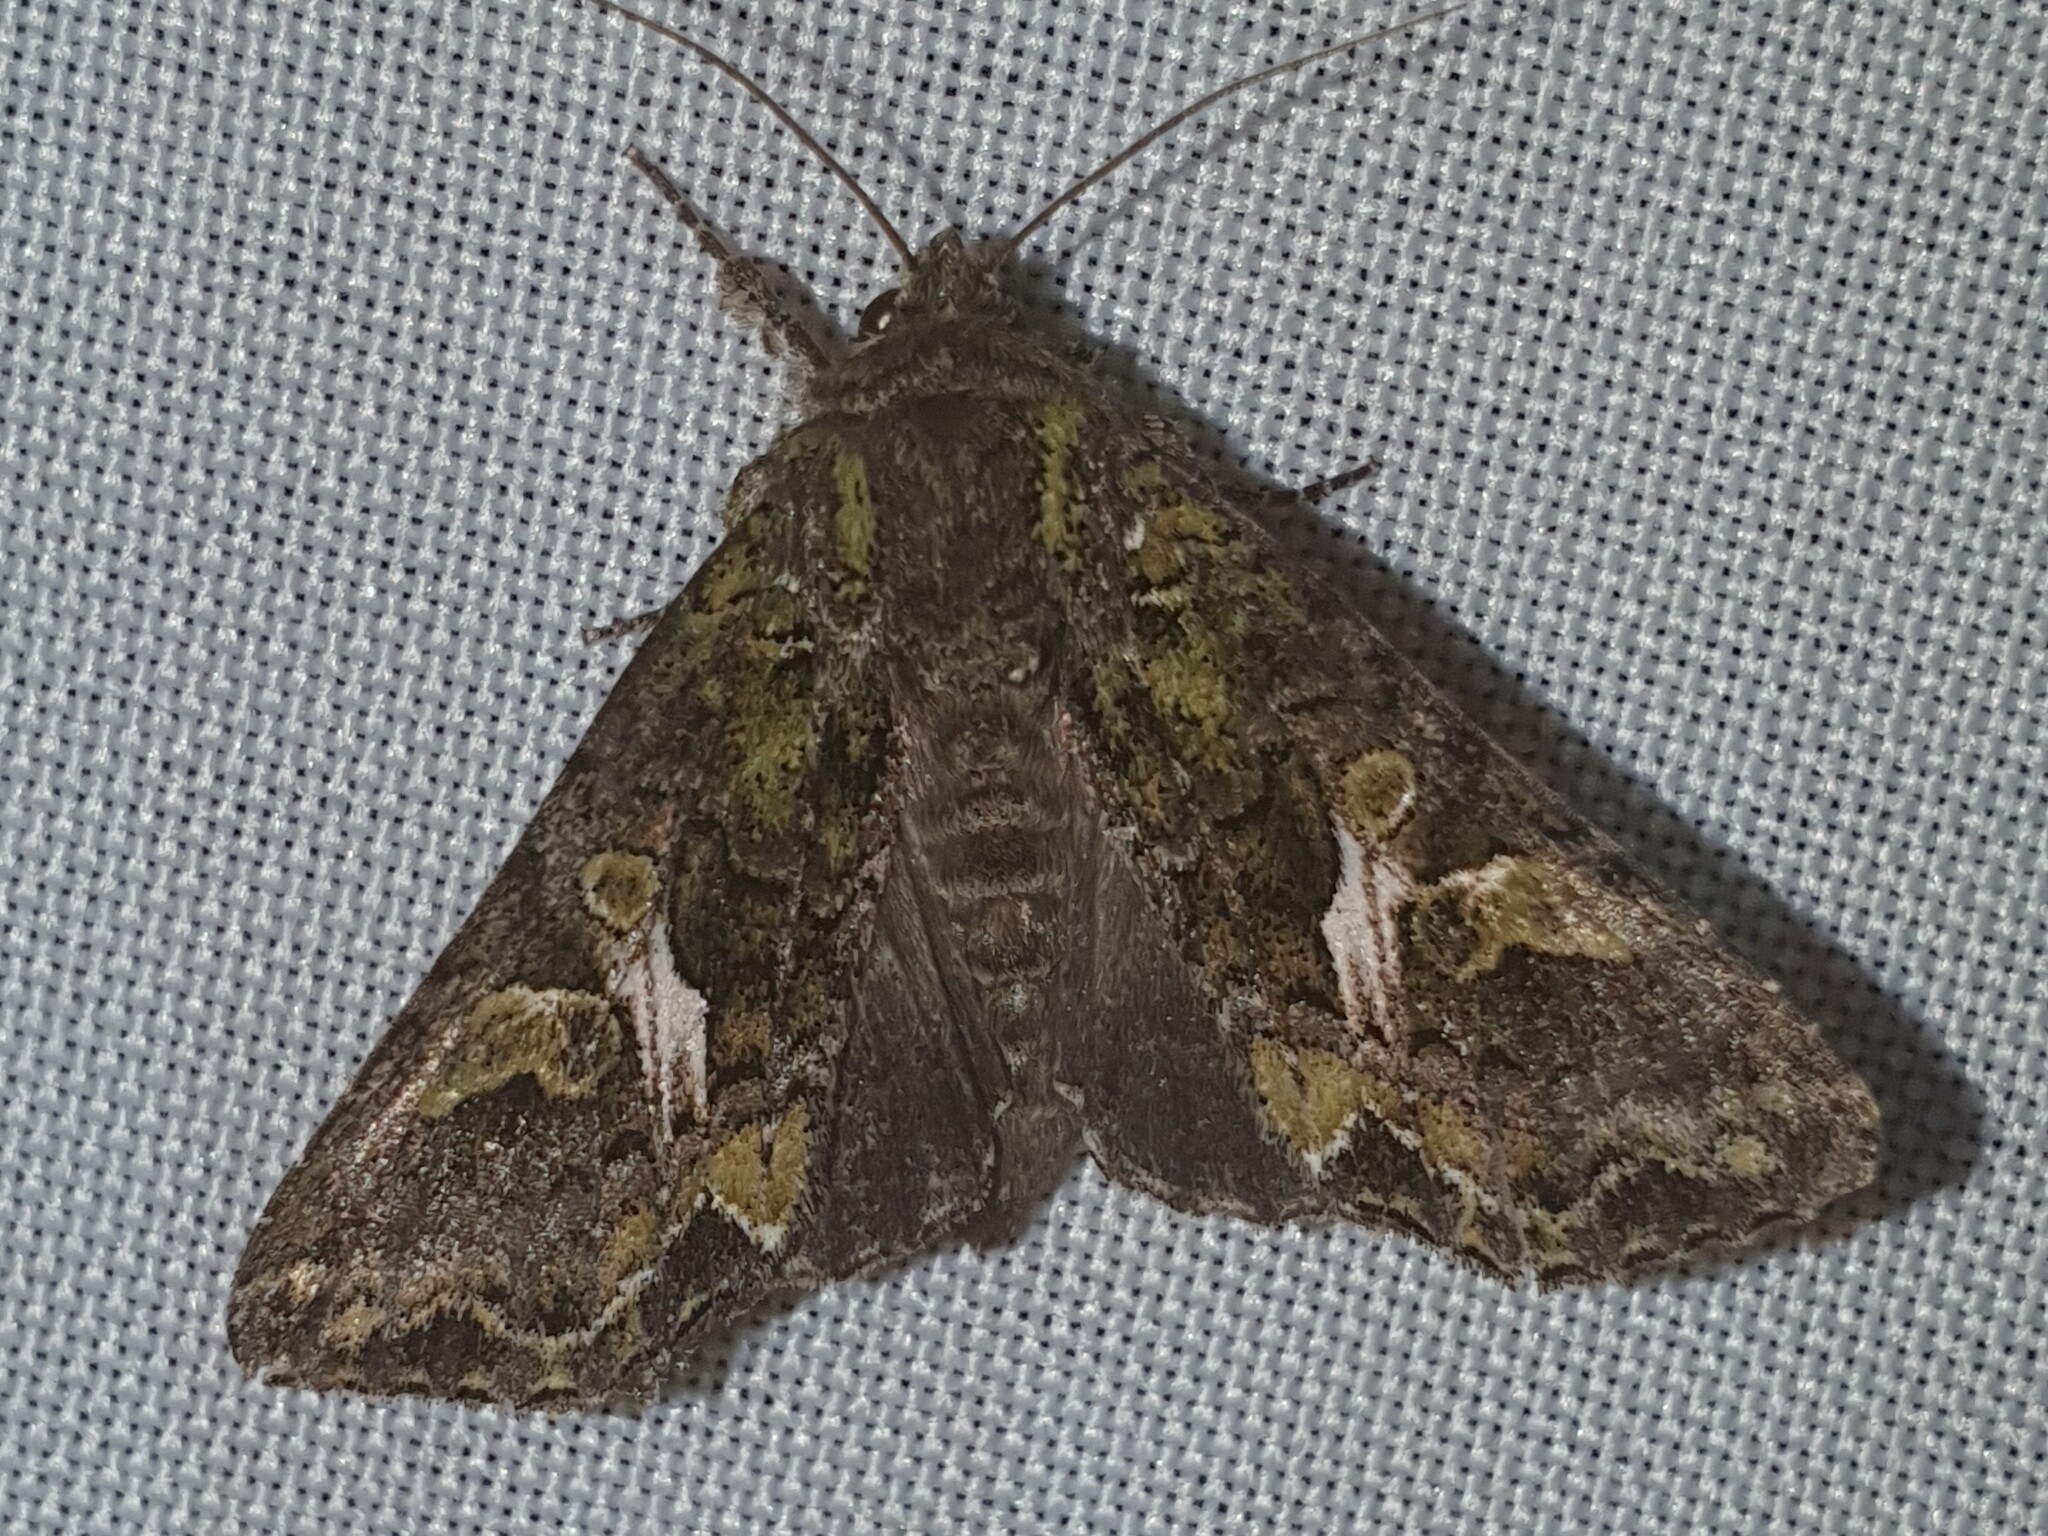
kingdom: Animalia
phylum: Arthropoda
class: Insecta
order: Lepidoptera
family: Noctuidae
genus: Trachea
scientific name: Trachea atriplicis
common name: Orache moth
